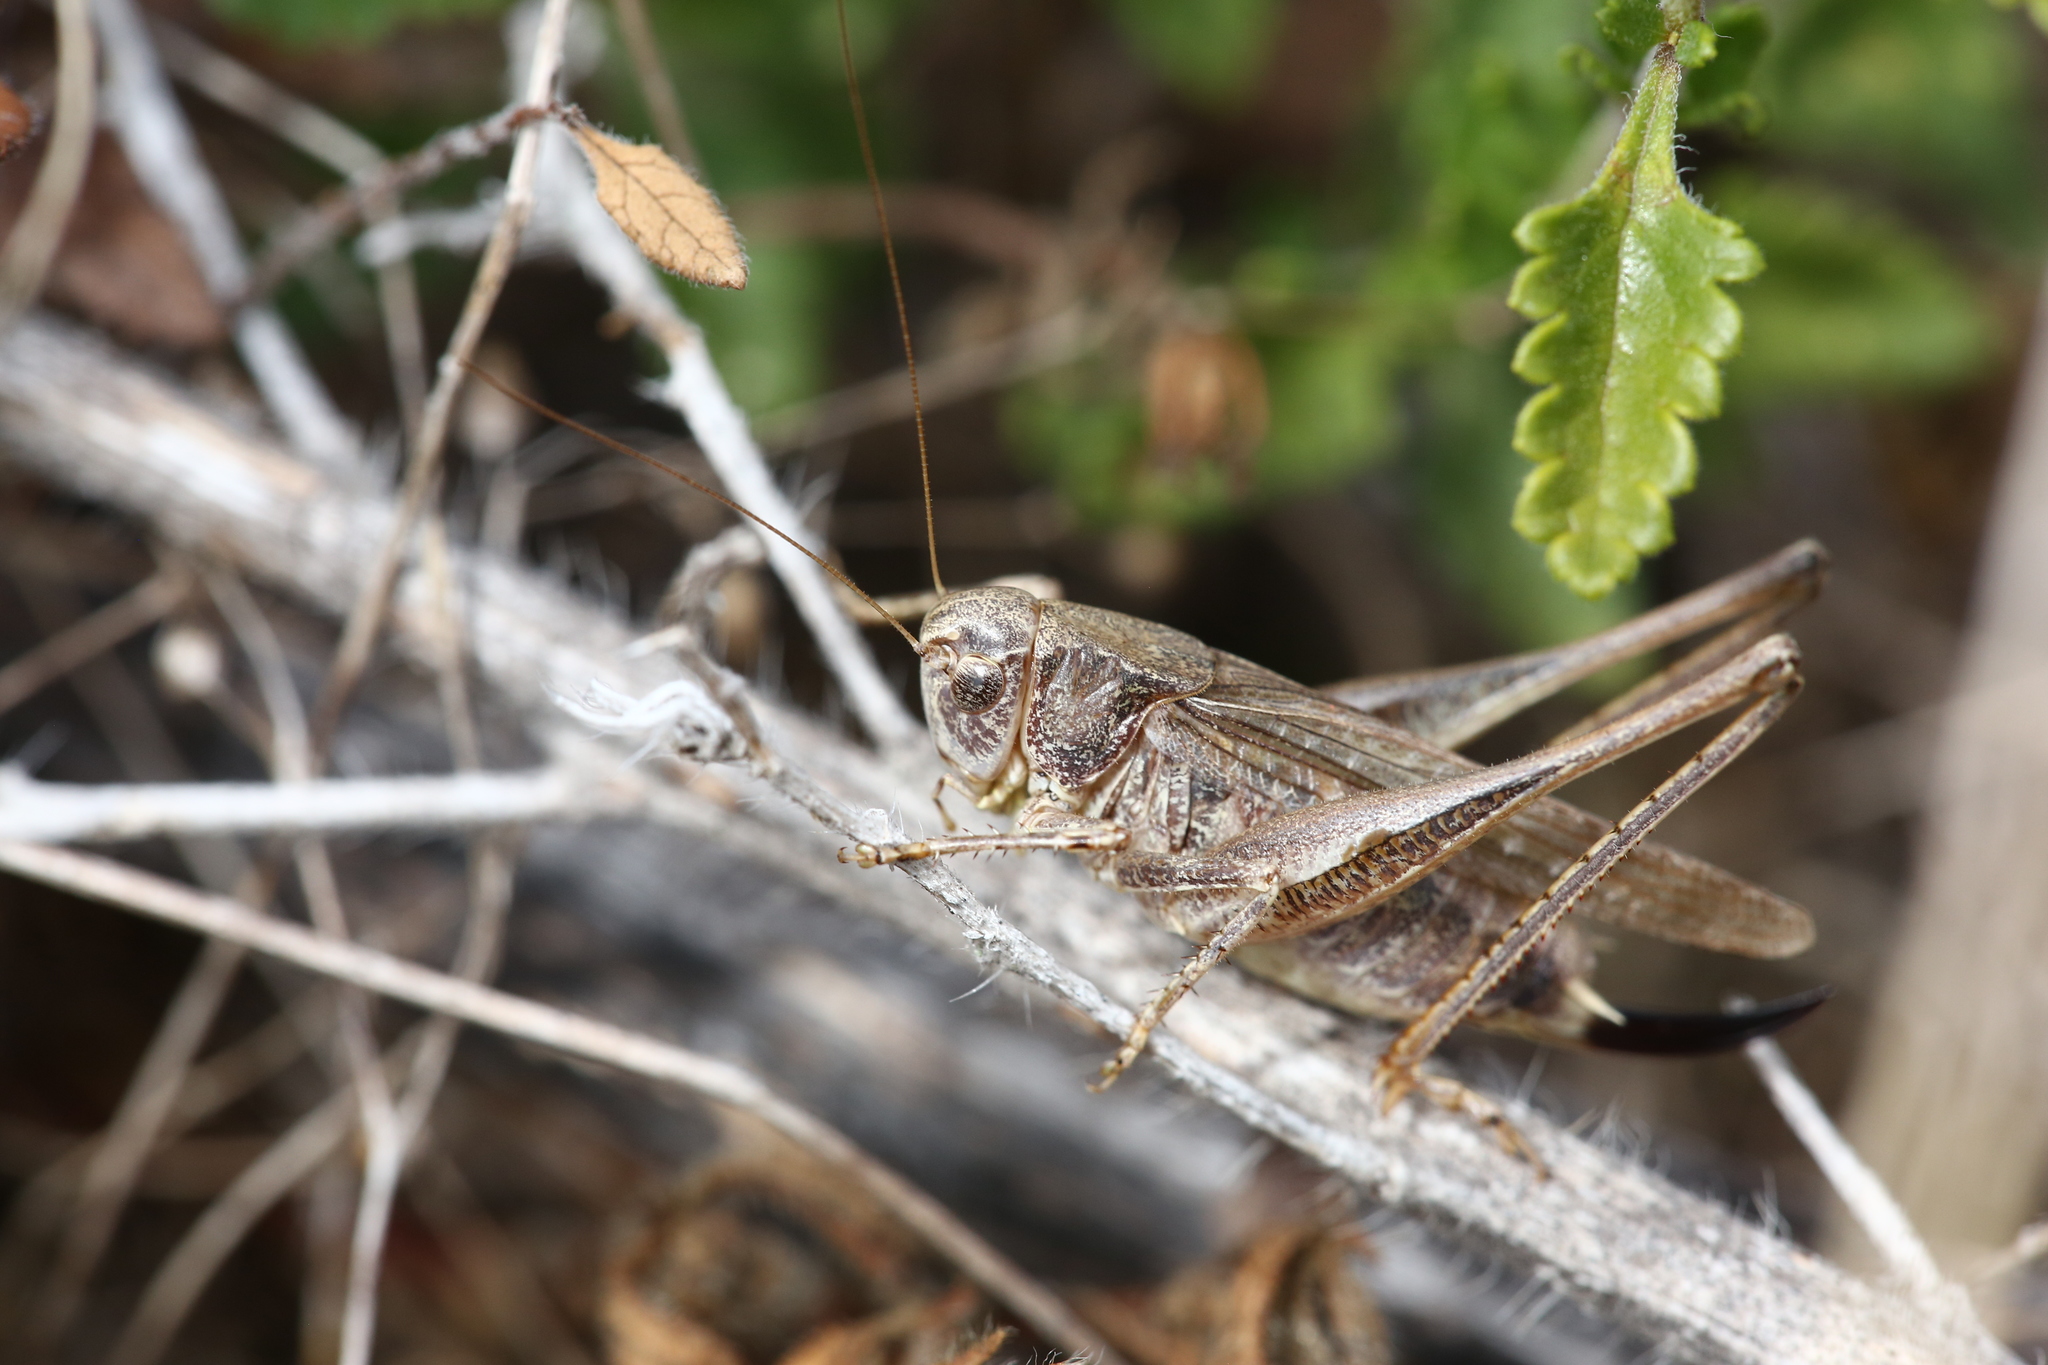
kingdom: Animalia
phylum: Arthropoda
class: Insecta
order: Orthoptera
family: Tettigoniidae
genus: Platycleis
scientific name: Platycleis albopunctata
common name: Grey bush-cricket
